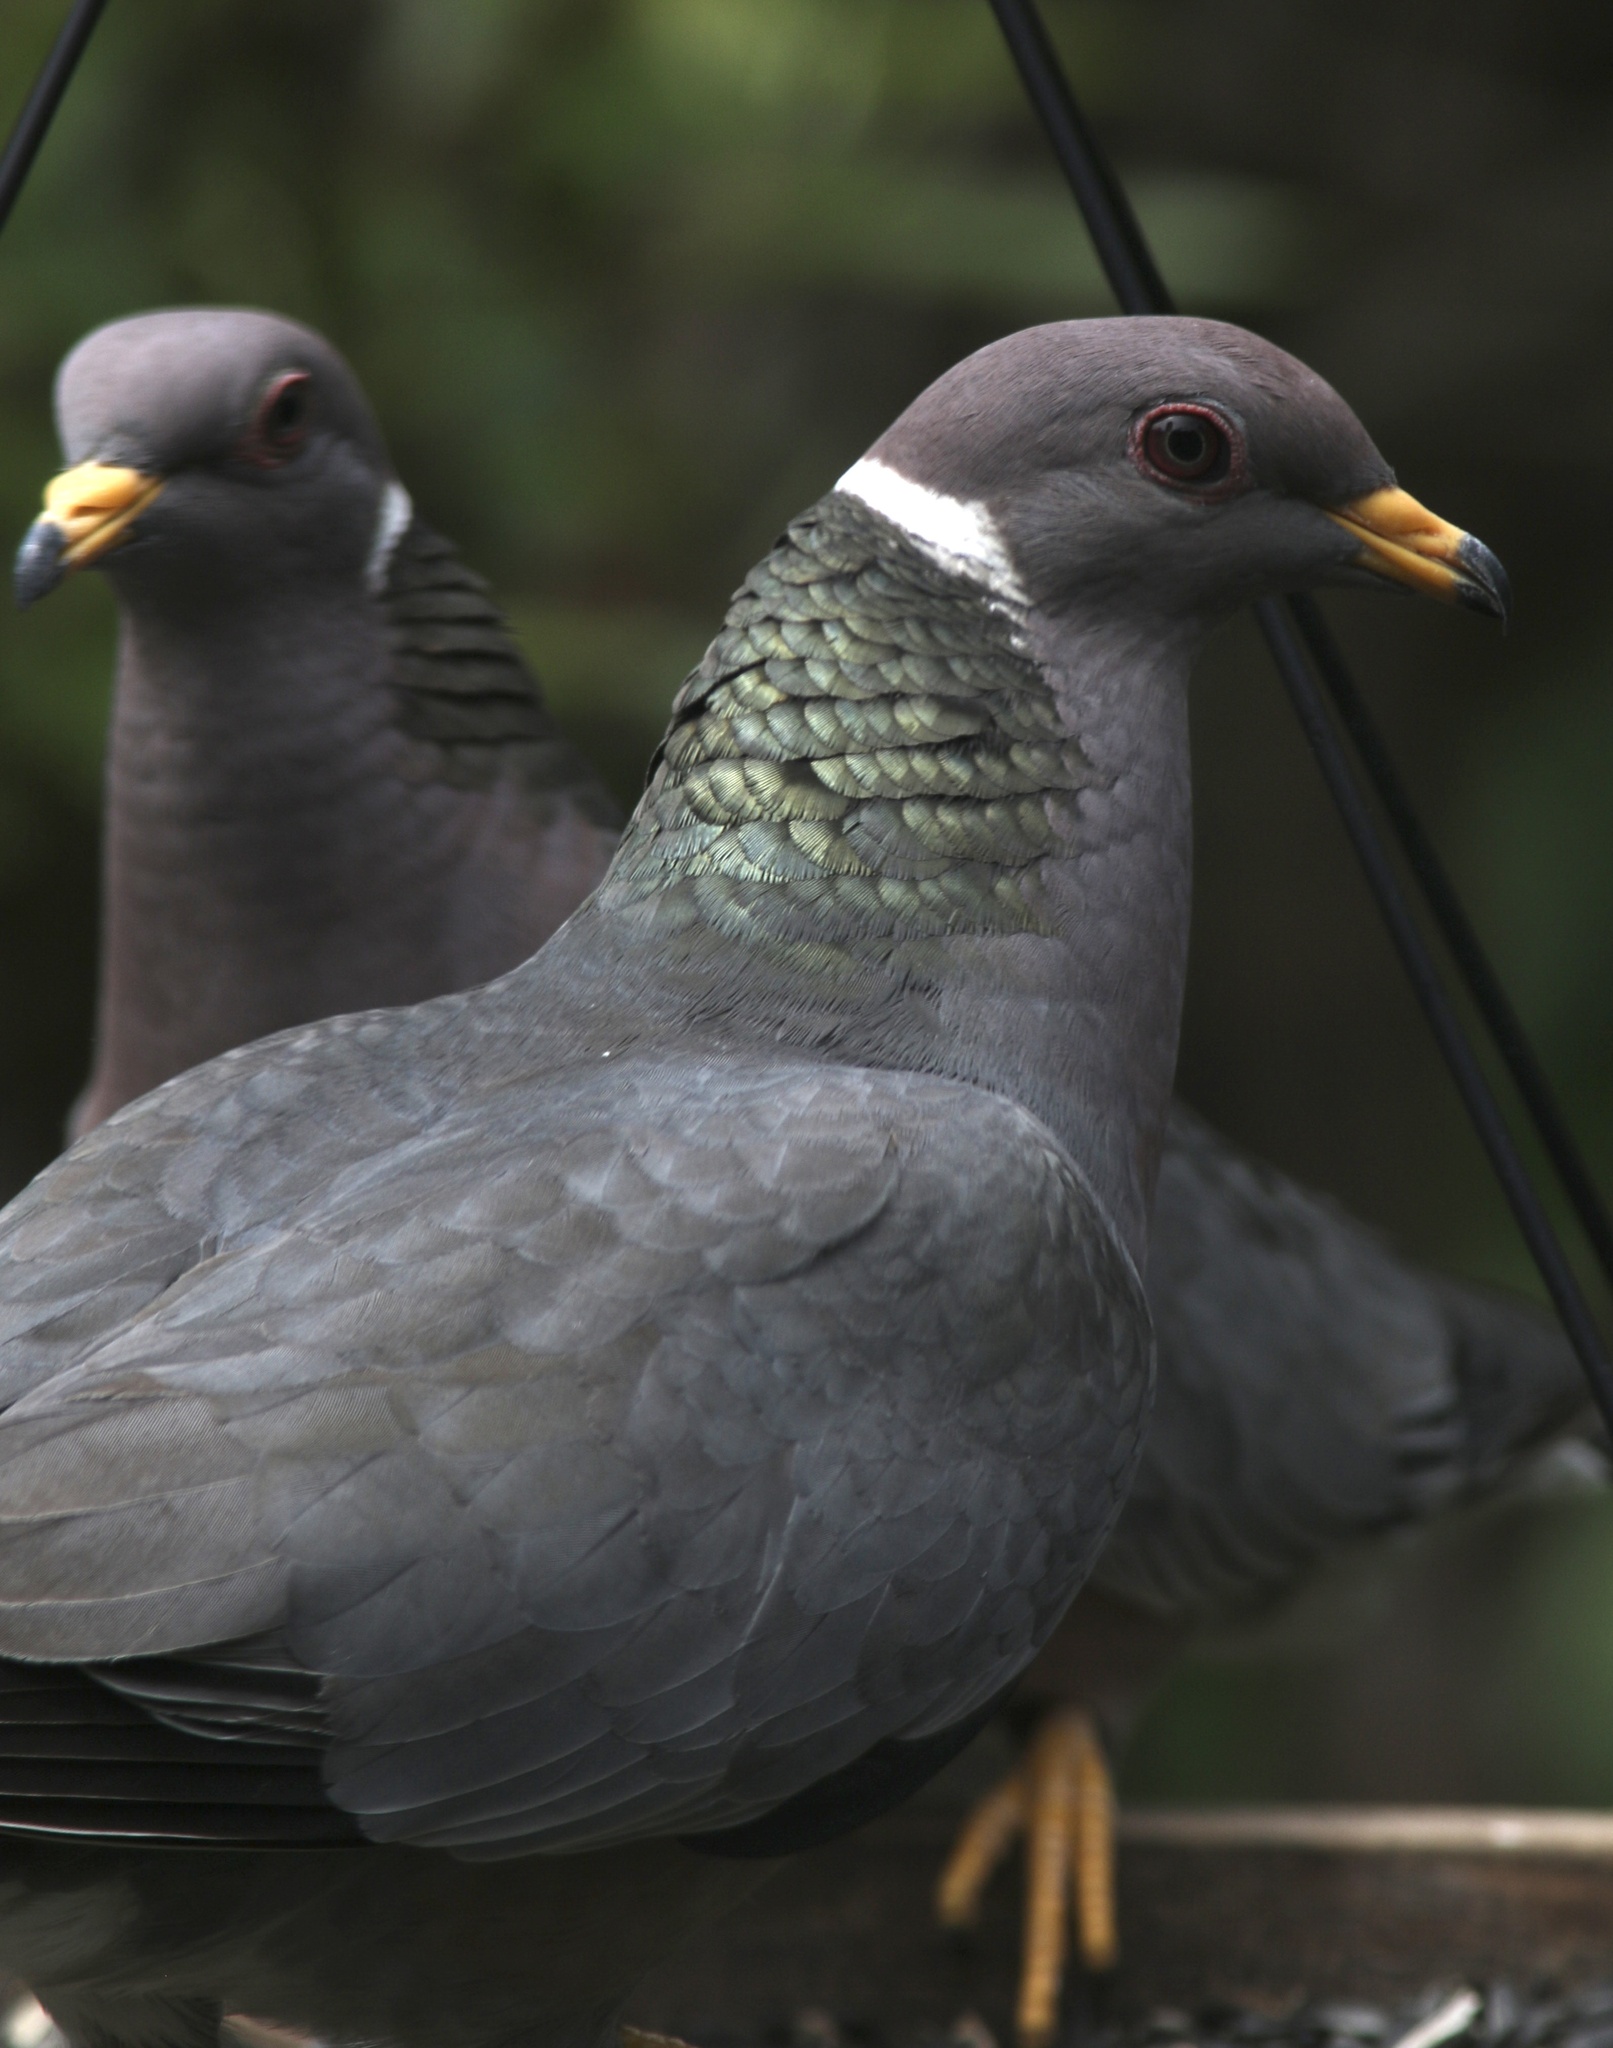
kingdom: Animalia
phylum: Chordata
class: Aves
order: Columbiformes
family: Columbidae
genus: Patagioenas
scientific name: Patagioenas fasciata
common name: Band-tailed pigeon
